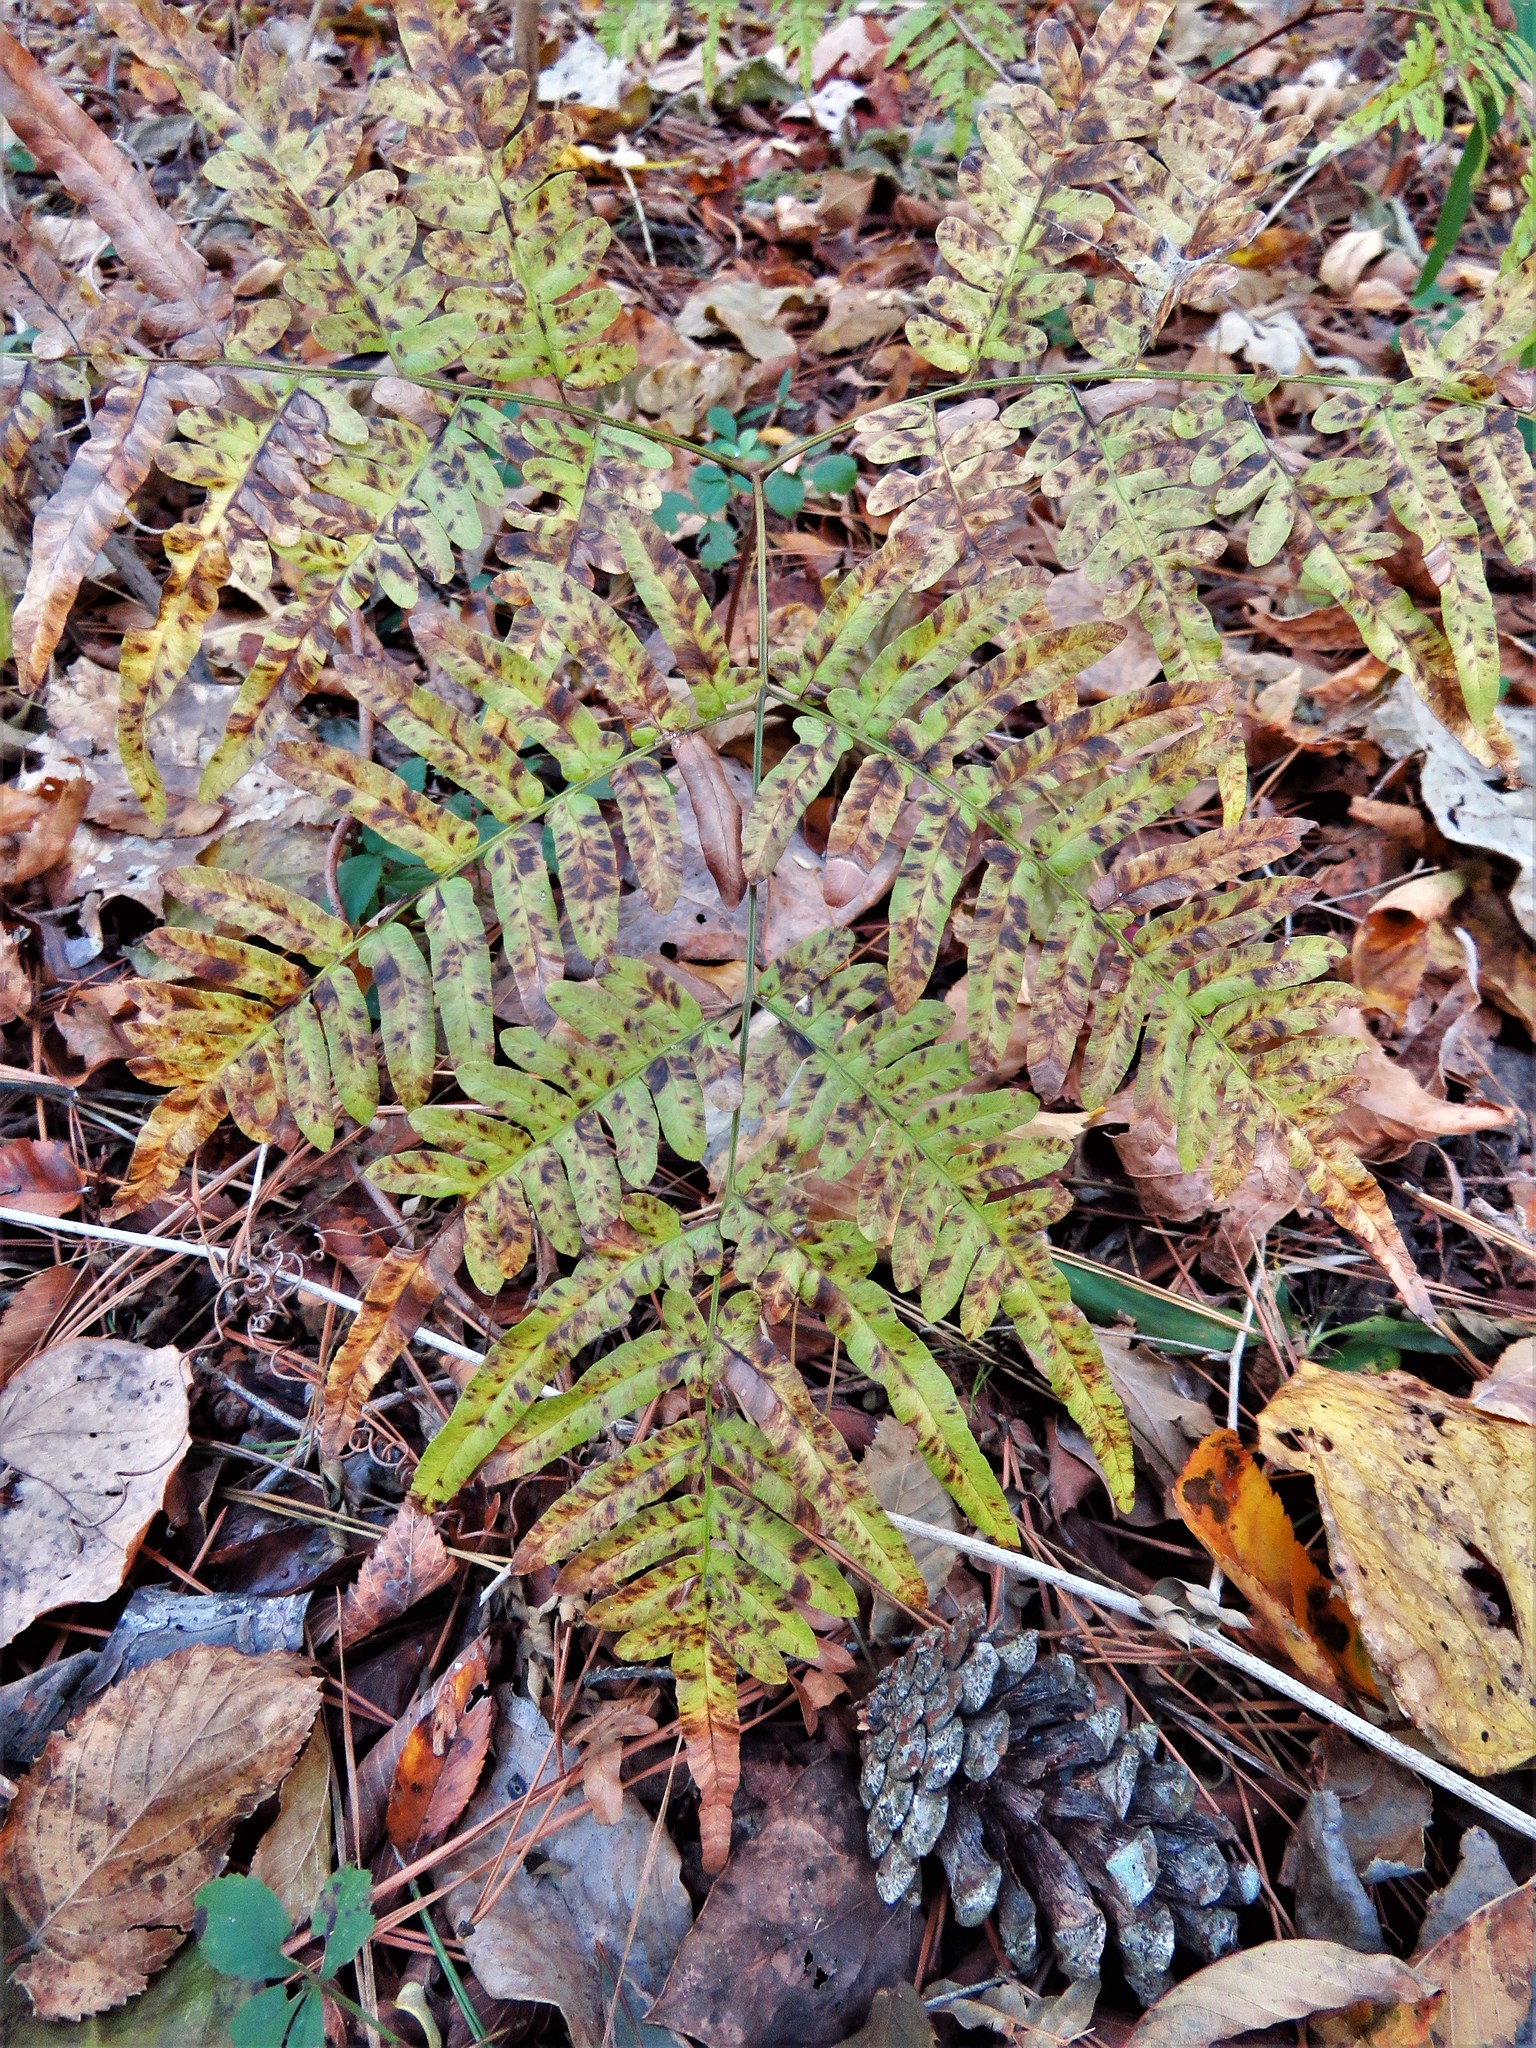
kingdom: Plantae
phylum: Tracheophyta
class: Polypodiopsida
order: Polypodiales
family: Dennstaedtiaceae
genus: Pteridium
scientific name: Pteridium
